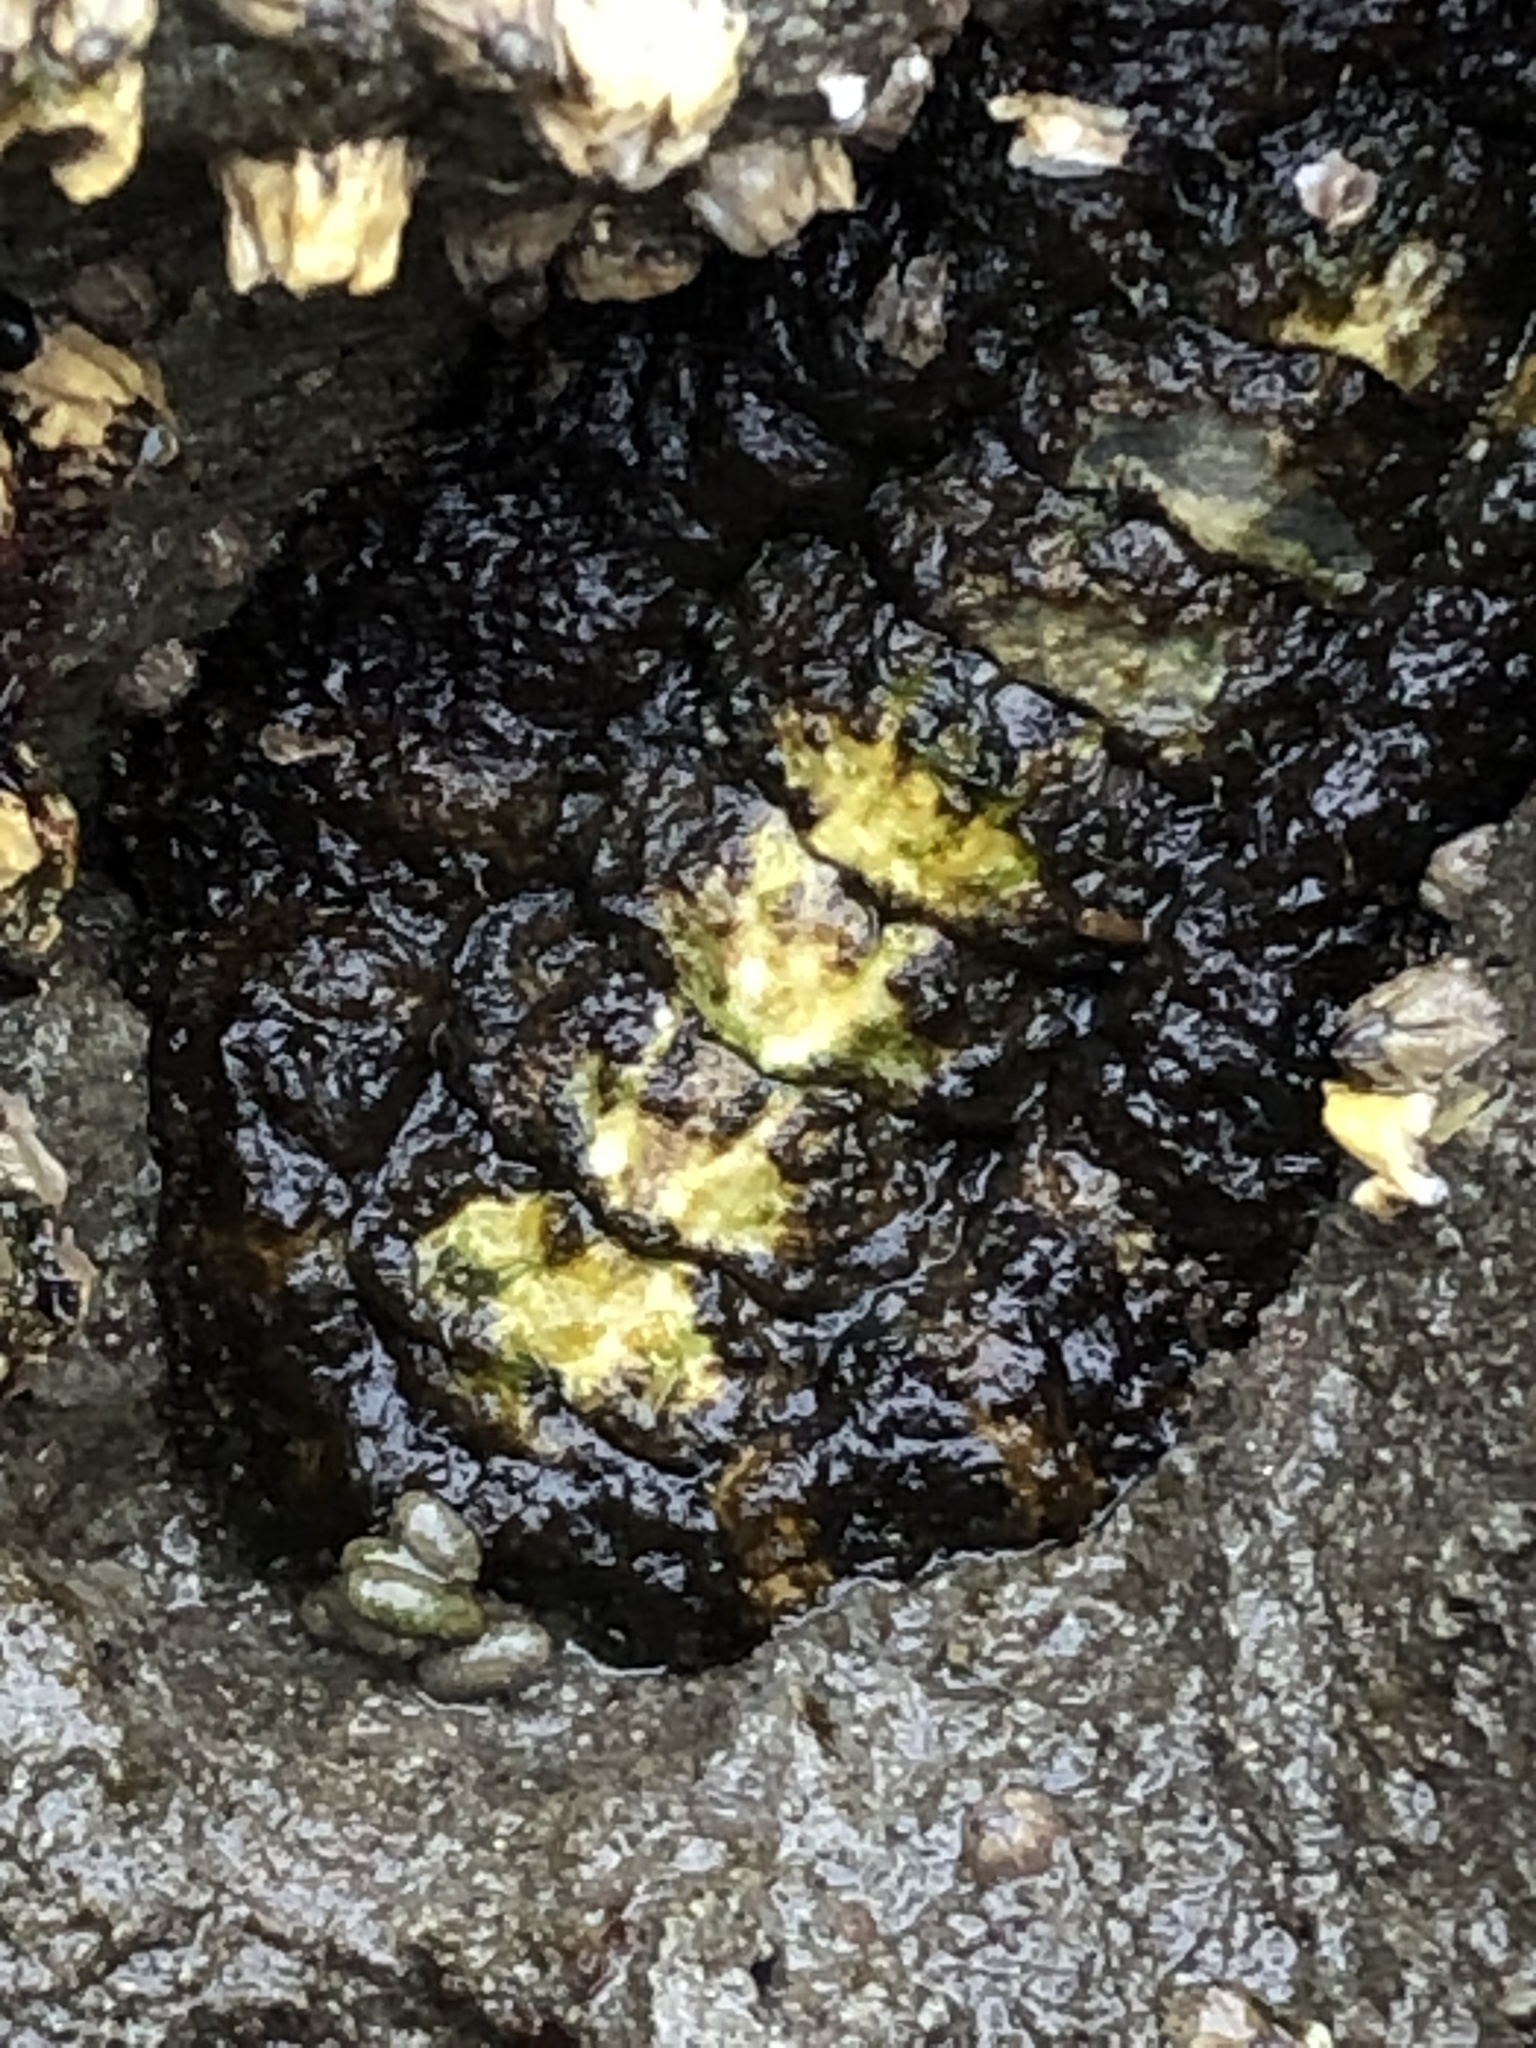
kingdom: Animalia
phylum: Mollusca
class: Polyplacophora
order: Chitonida
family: Tonicellidae
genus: Nuttallina
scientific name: Nuttallina californica
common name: California nuttall chiton
